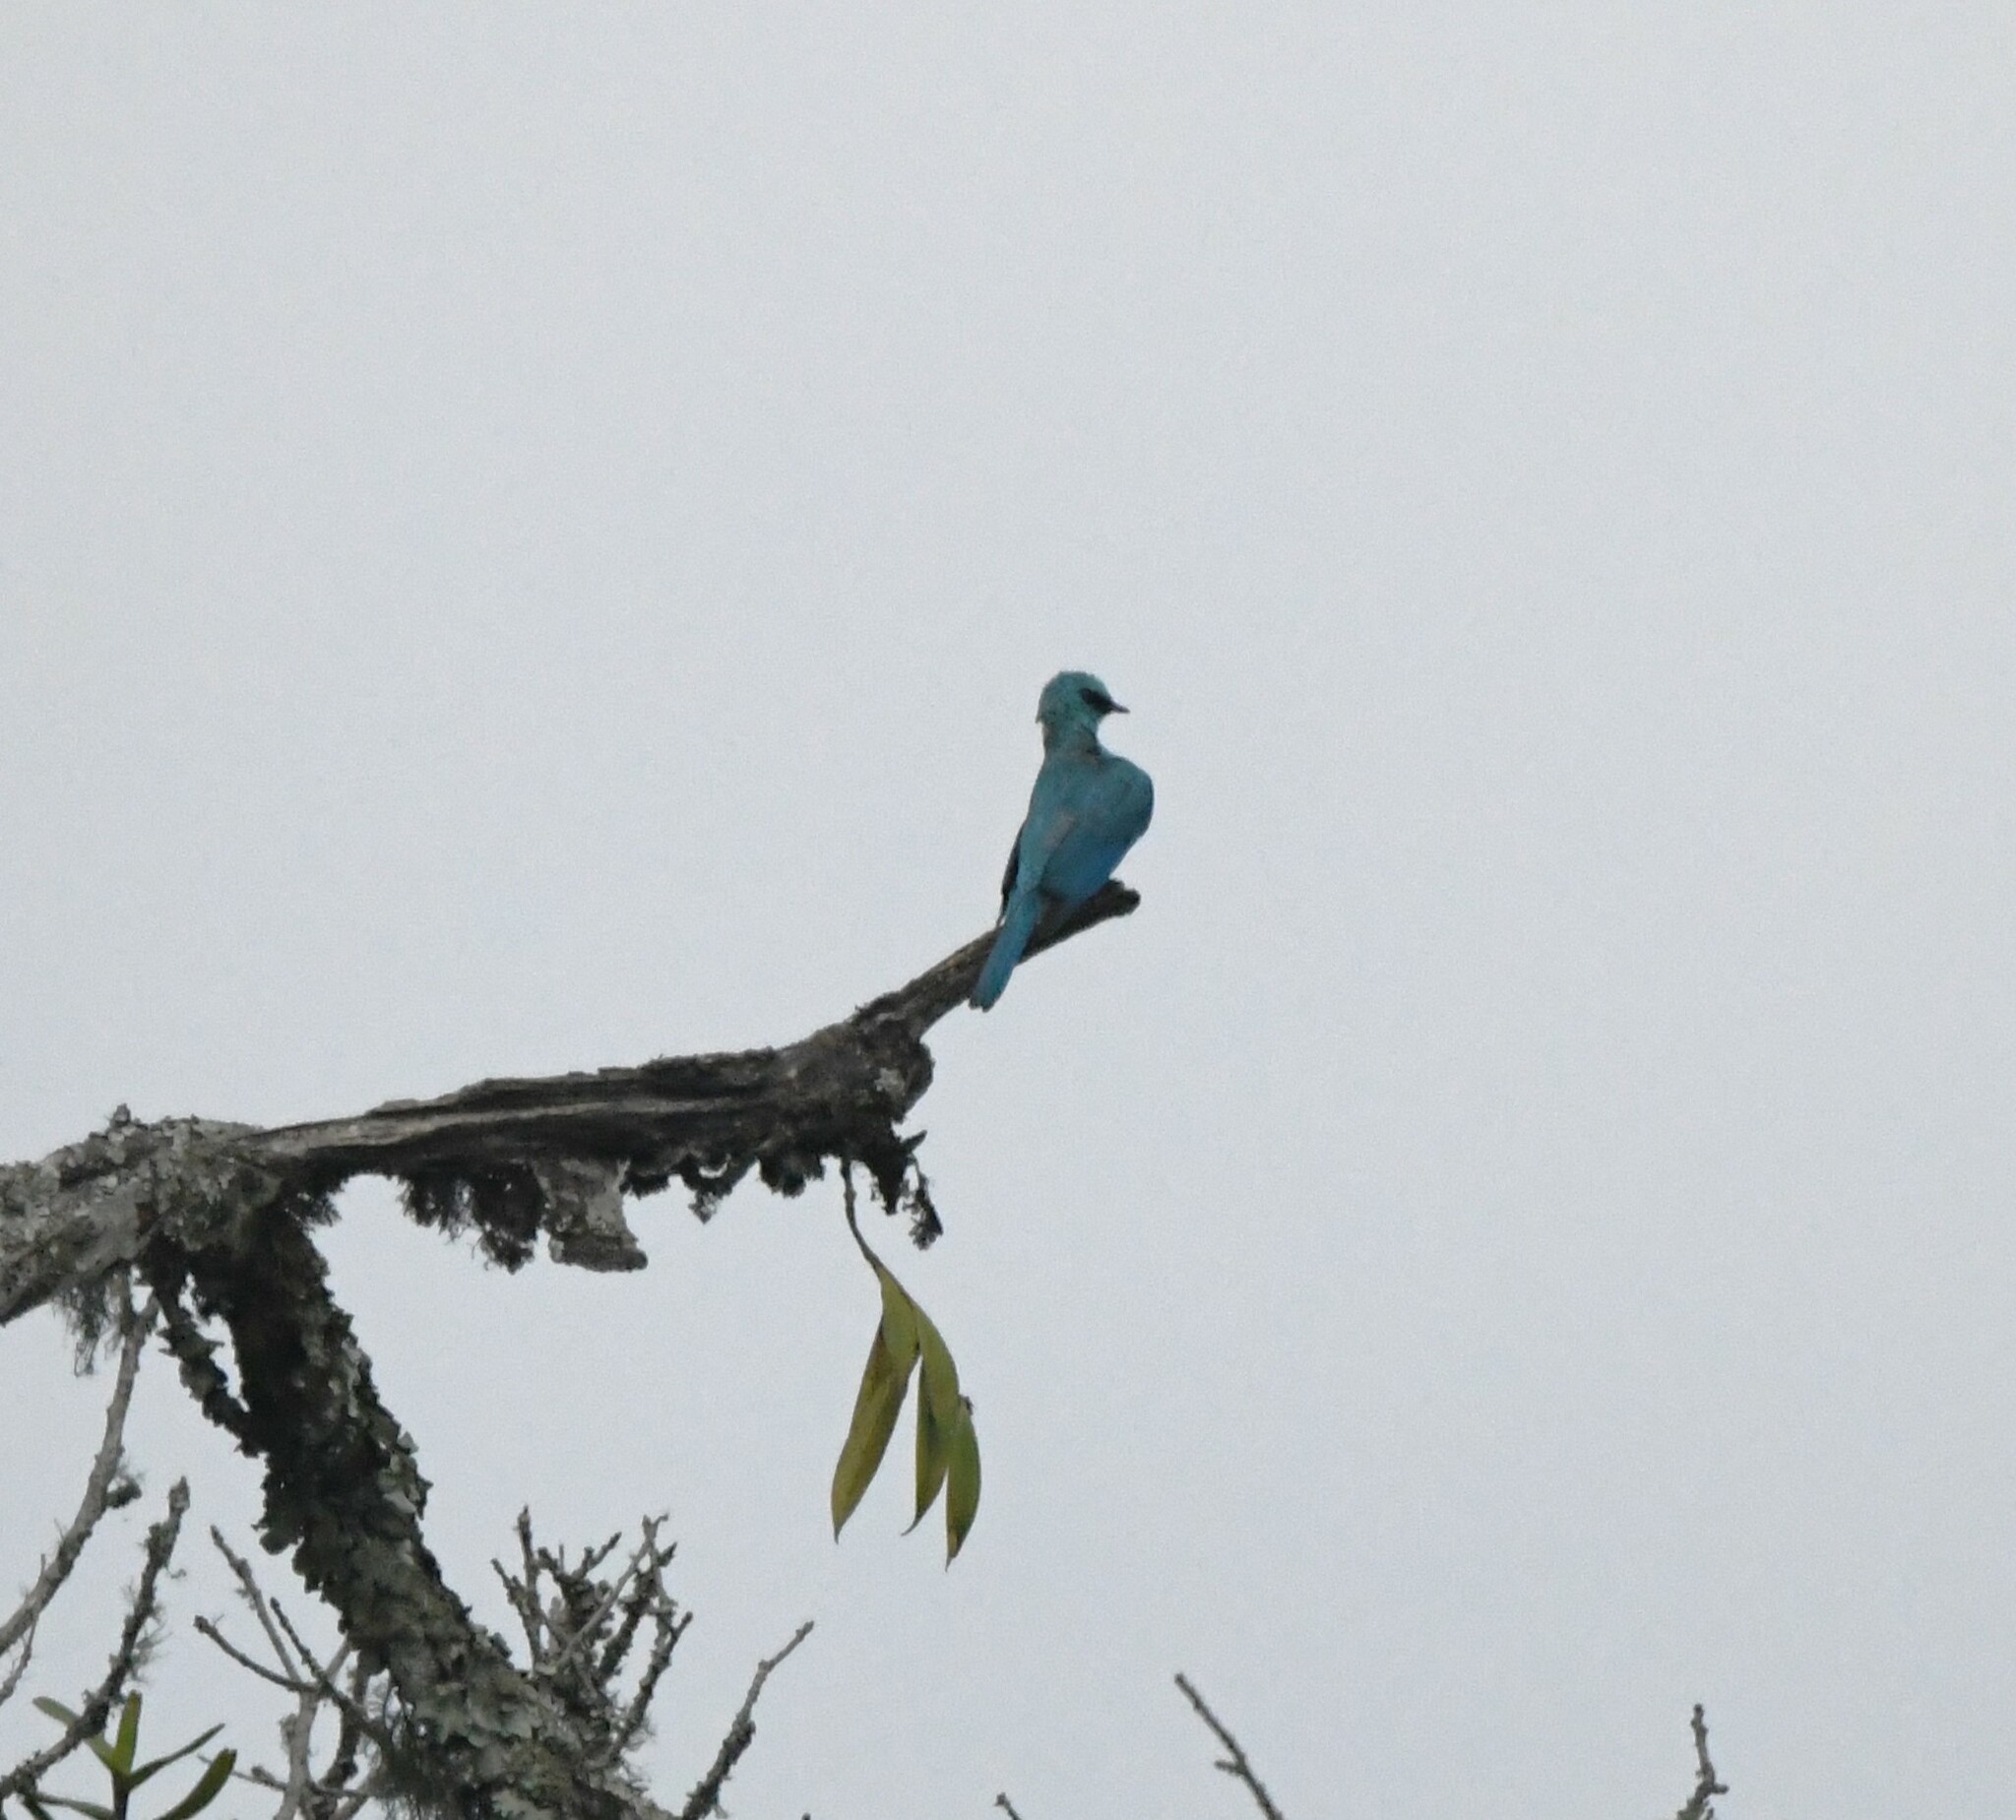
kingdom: Animalia
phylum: Chordata
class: Aves
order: Passeriformes
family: Muscicapidae
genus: Eumyias
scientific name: Eumyias thalassinus
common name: Verditer flycatcher
